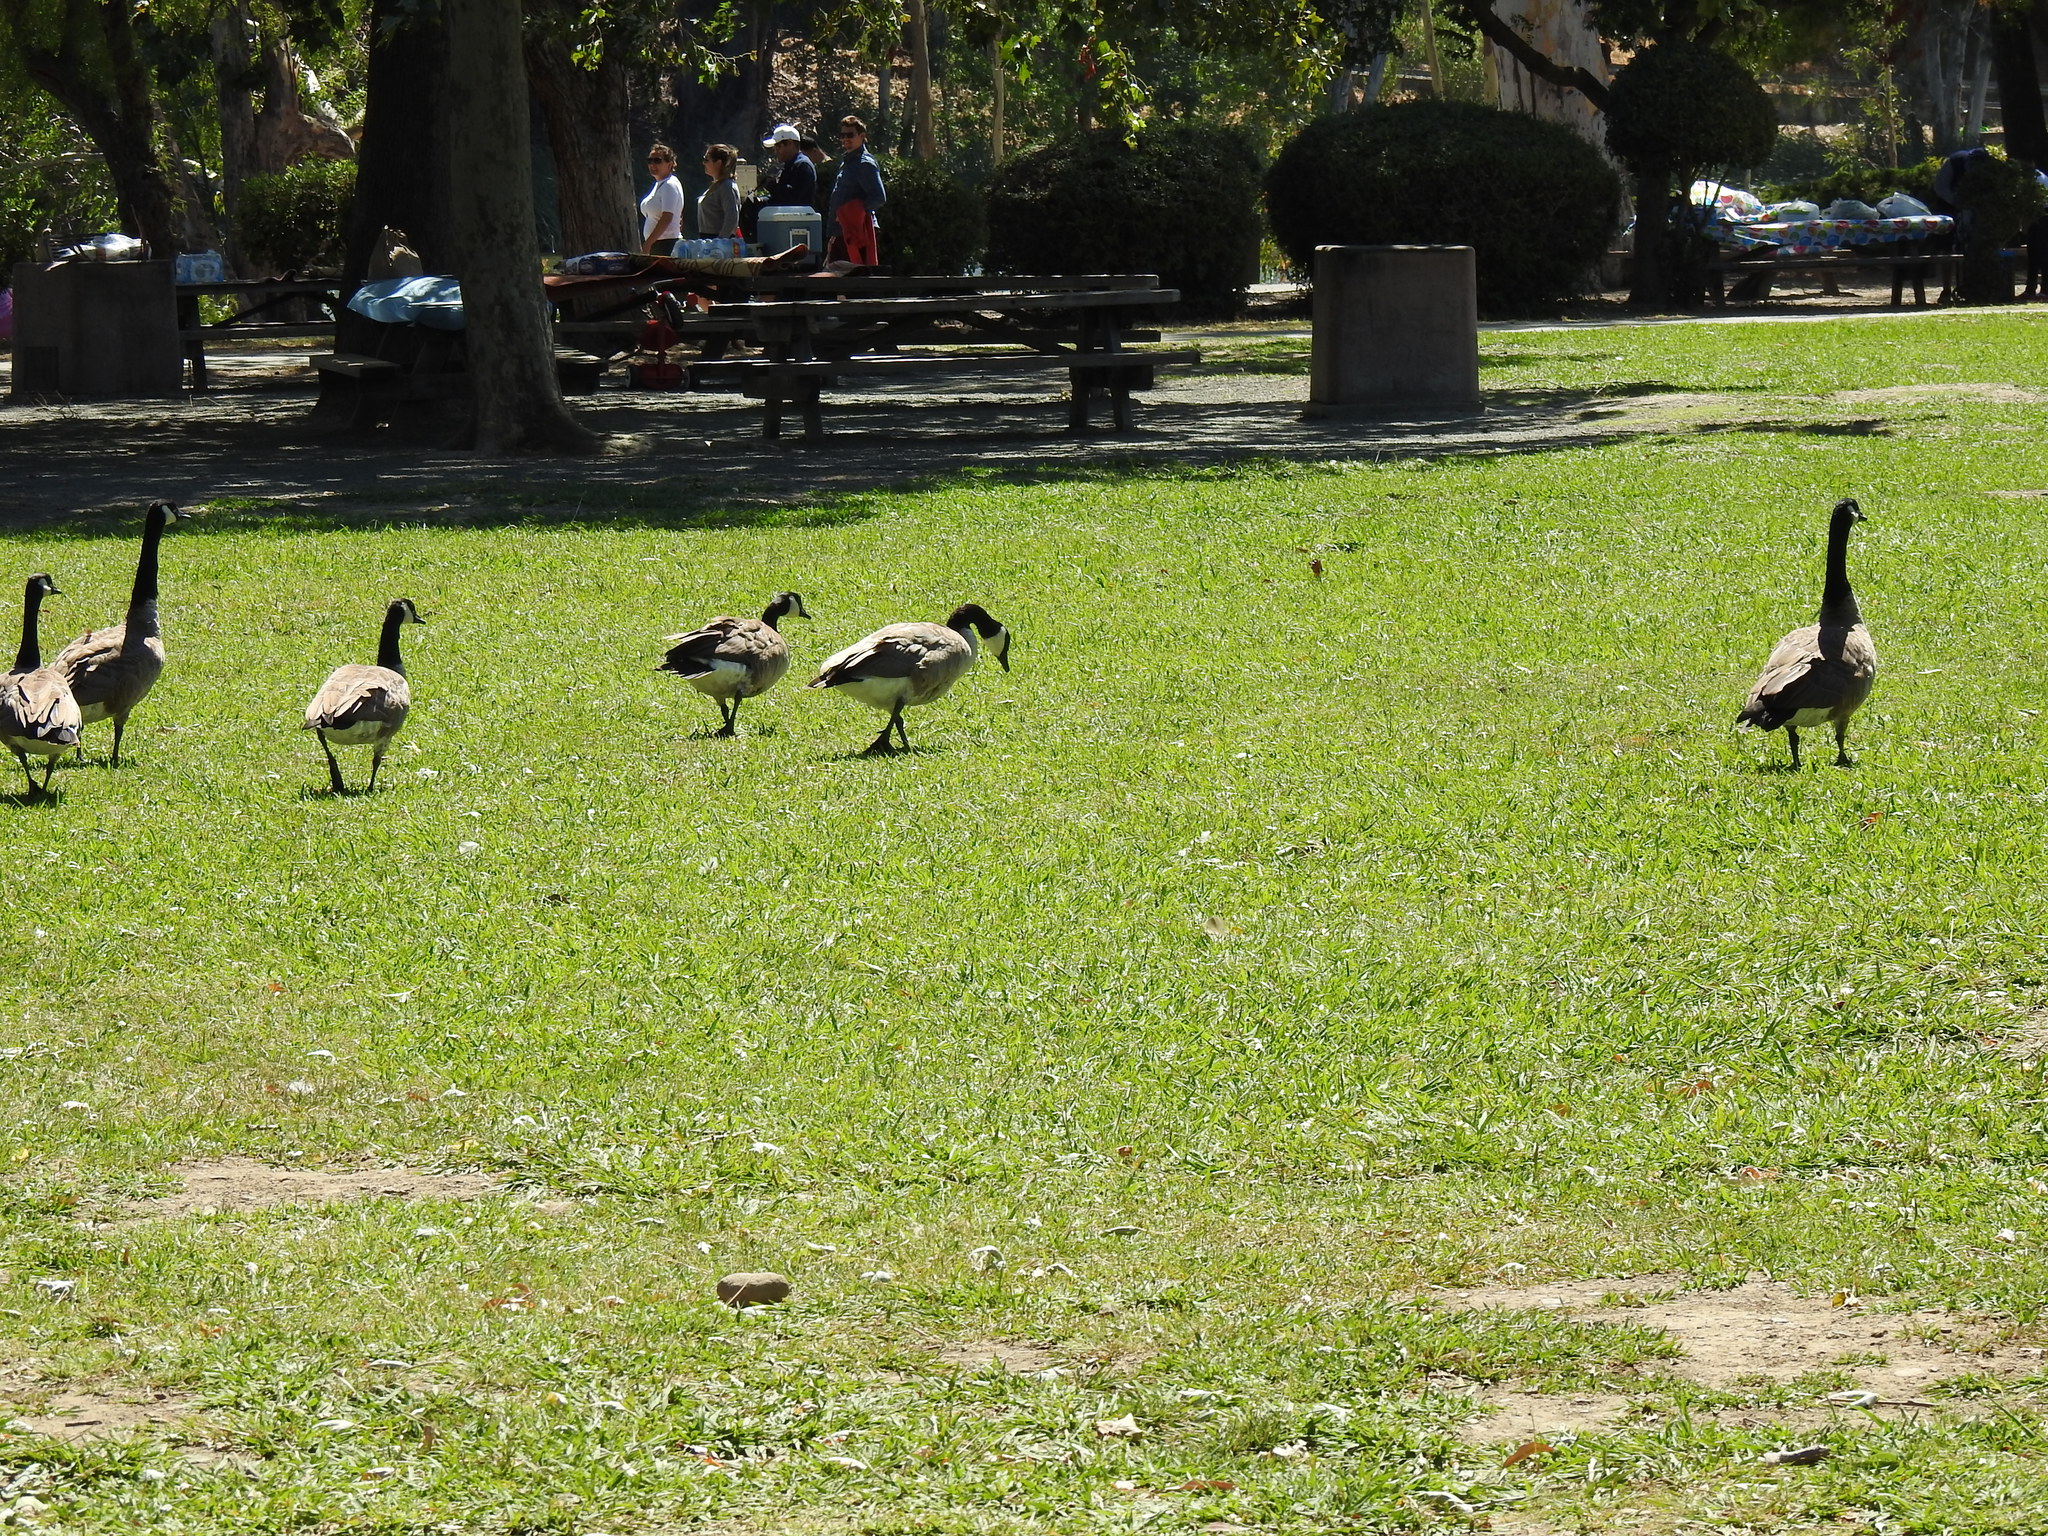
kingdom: Animalia
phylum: Chordata
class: Aves
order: Anseriformes
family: Anatidae
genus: Branta
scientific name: Branta canadensis
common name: Canada goose
